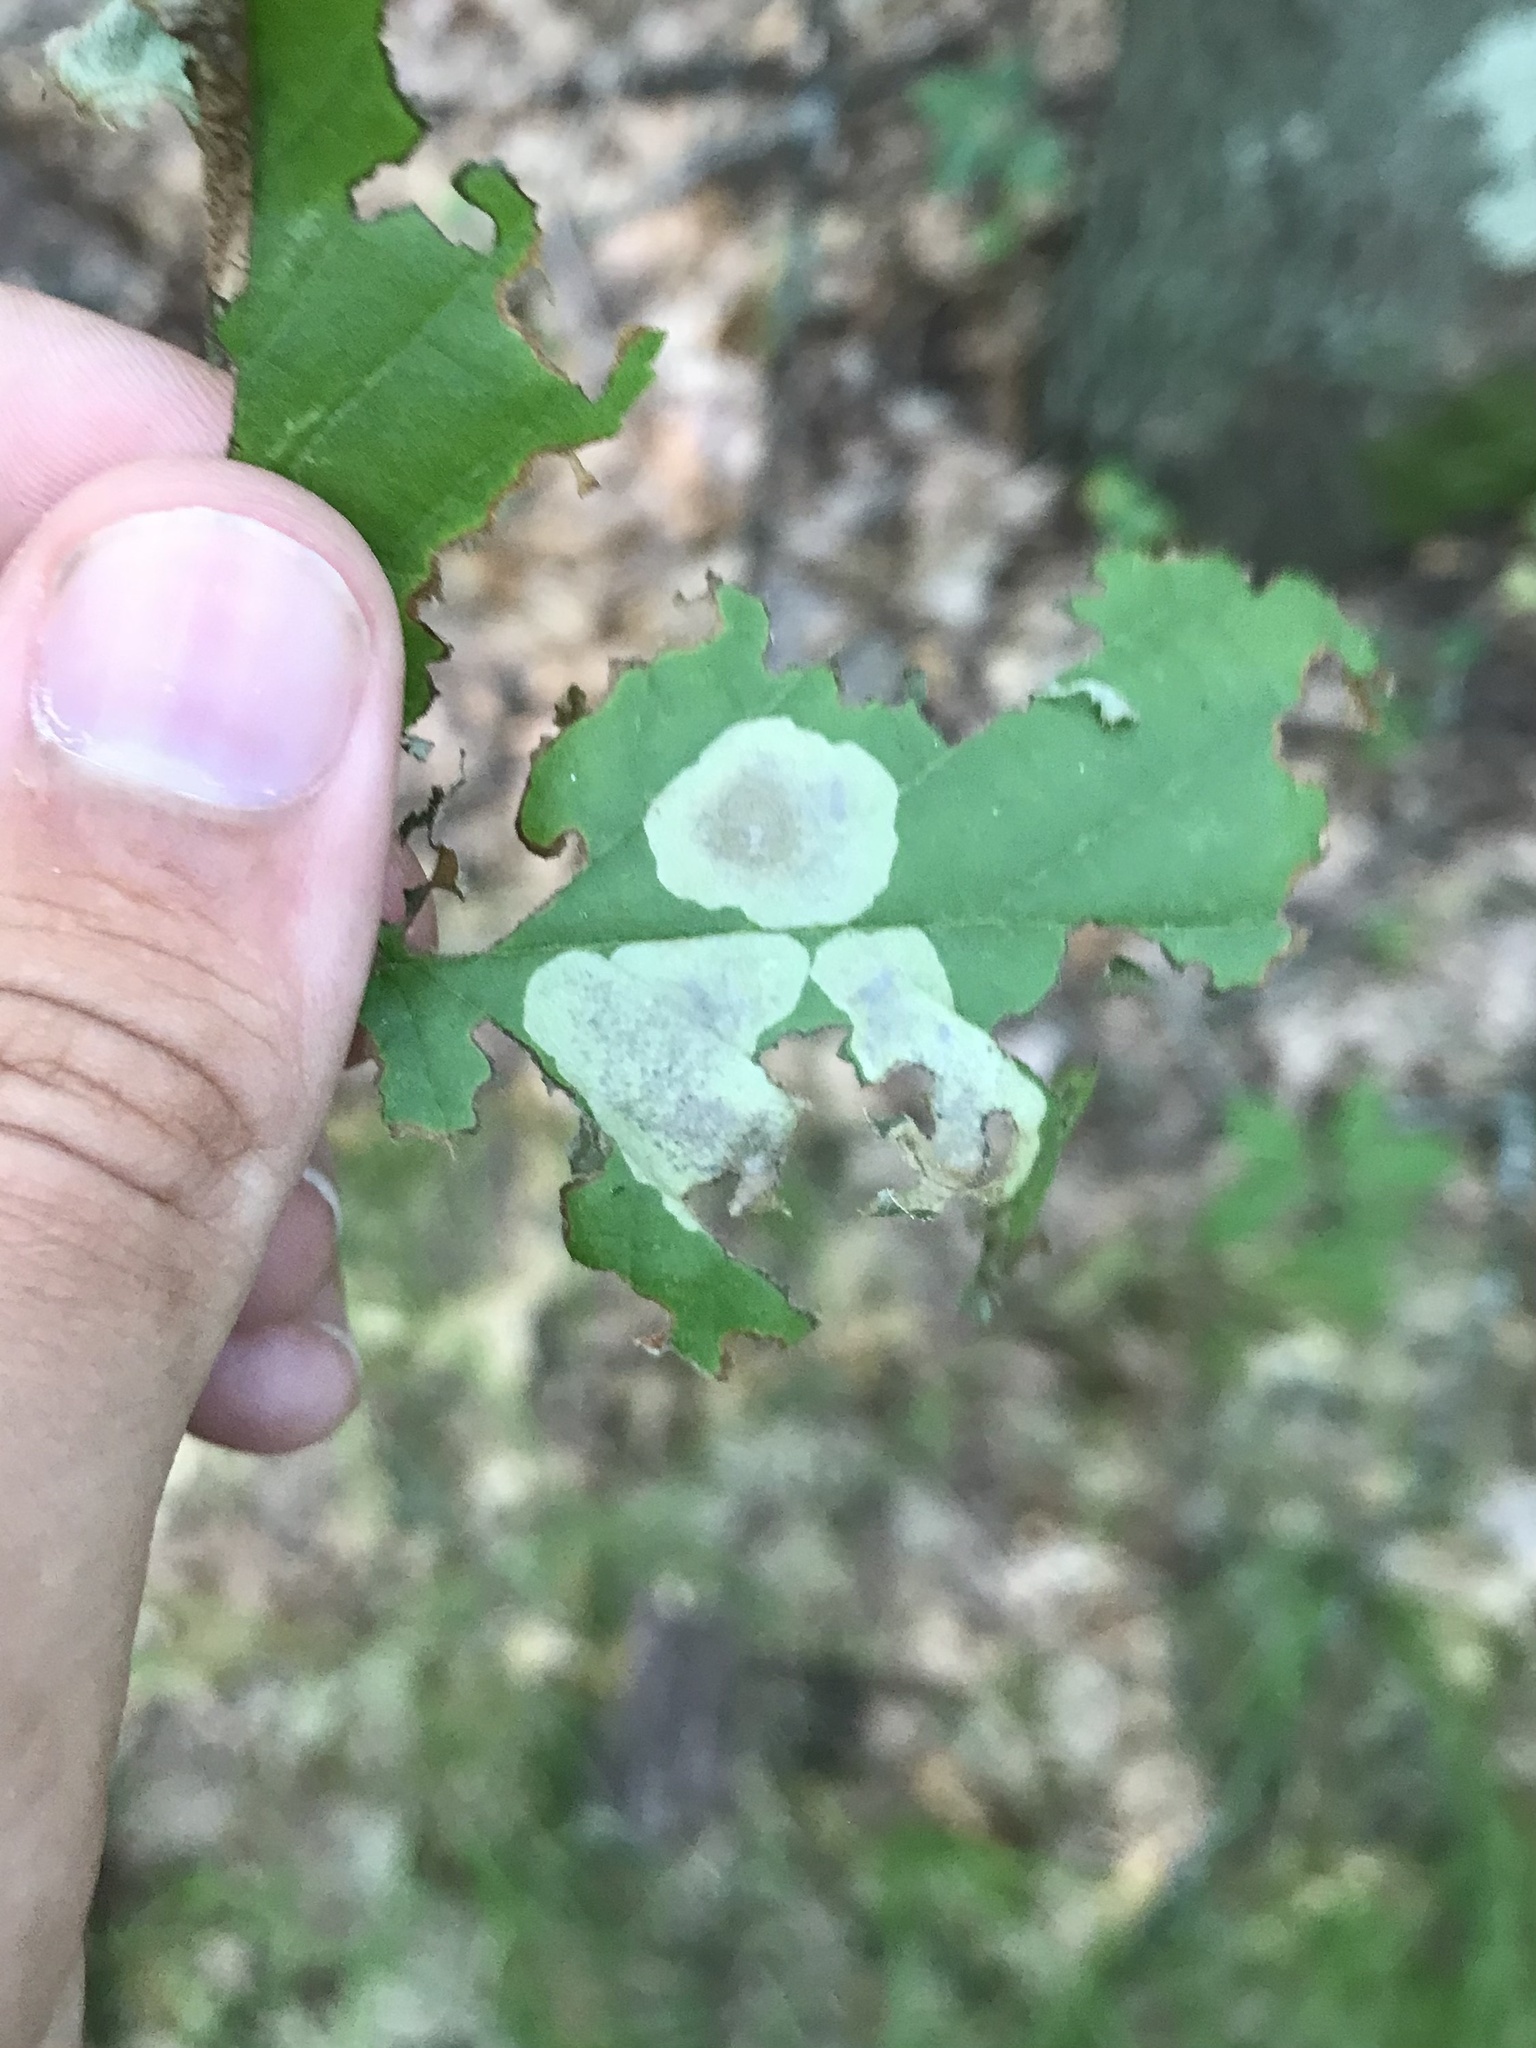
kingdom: Animalia
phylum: Arthropoda
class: Insecta
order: Lepidoptera
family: Gracillariidae
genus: Cameraria
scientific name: Cameraria corylisella
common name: Hazel blotchminer
